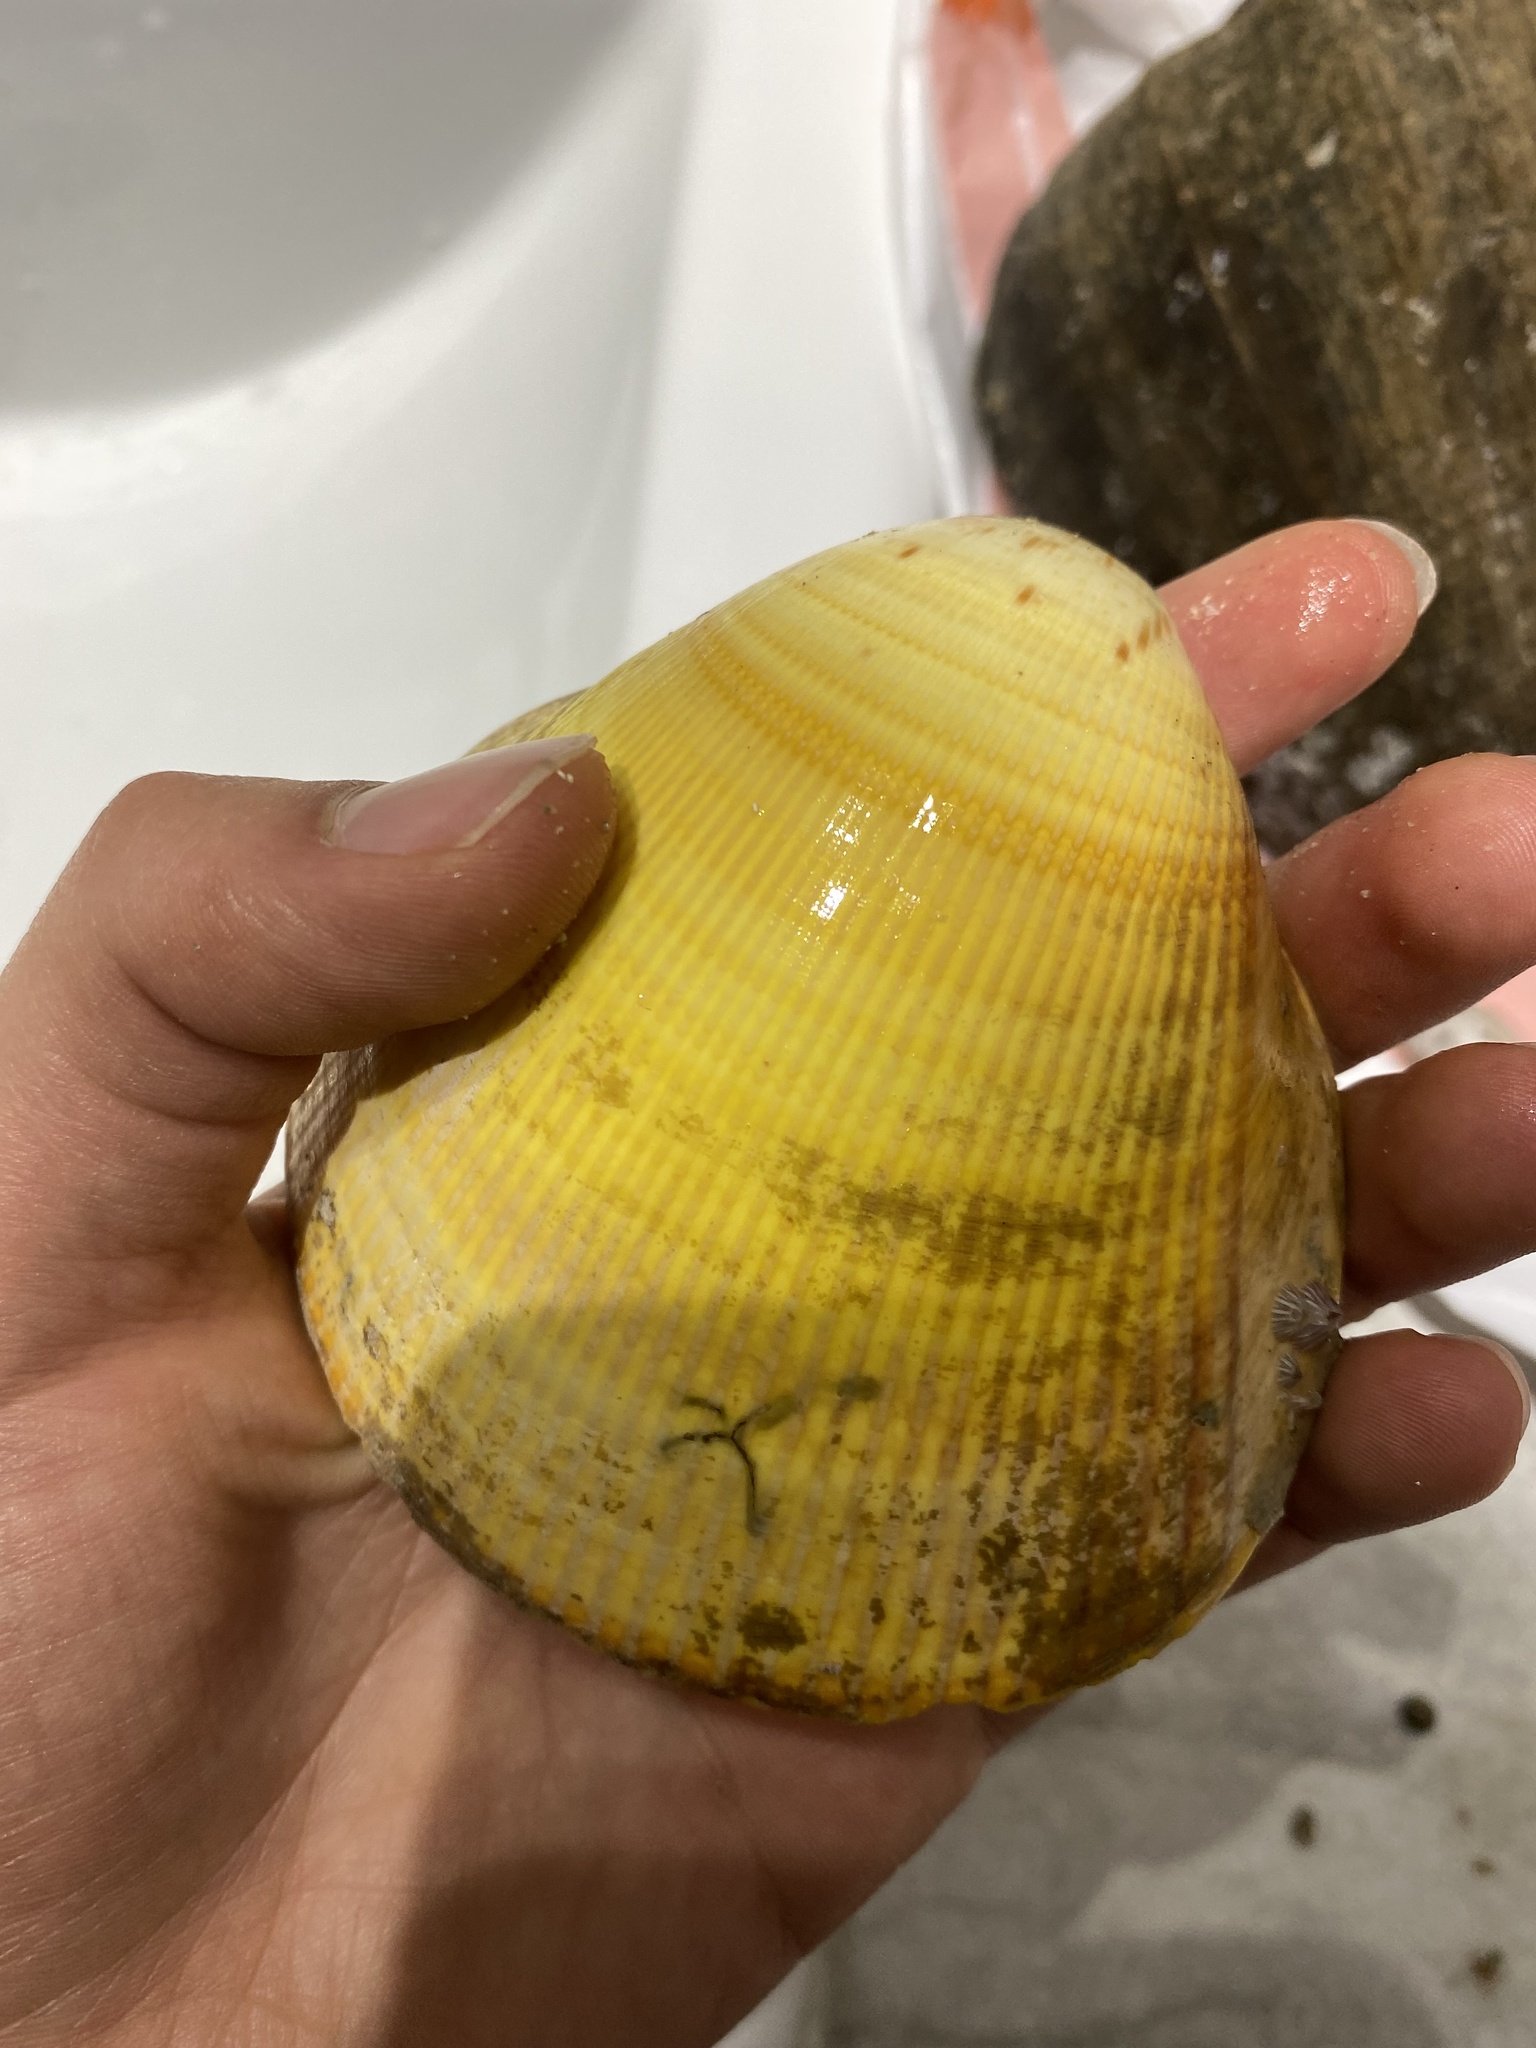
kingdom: Animalia
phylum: Mollusca
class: Bivalvia
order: Cardiida
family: Cardiidae
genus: Laevicardium
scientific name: Laevicardium elatum
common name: Giant pacific eggcockle
